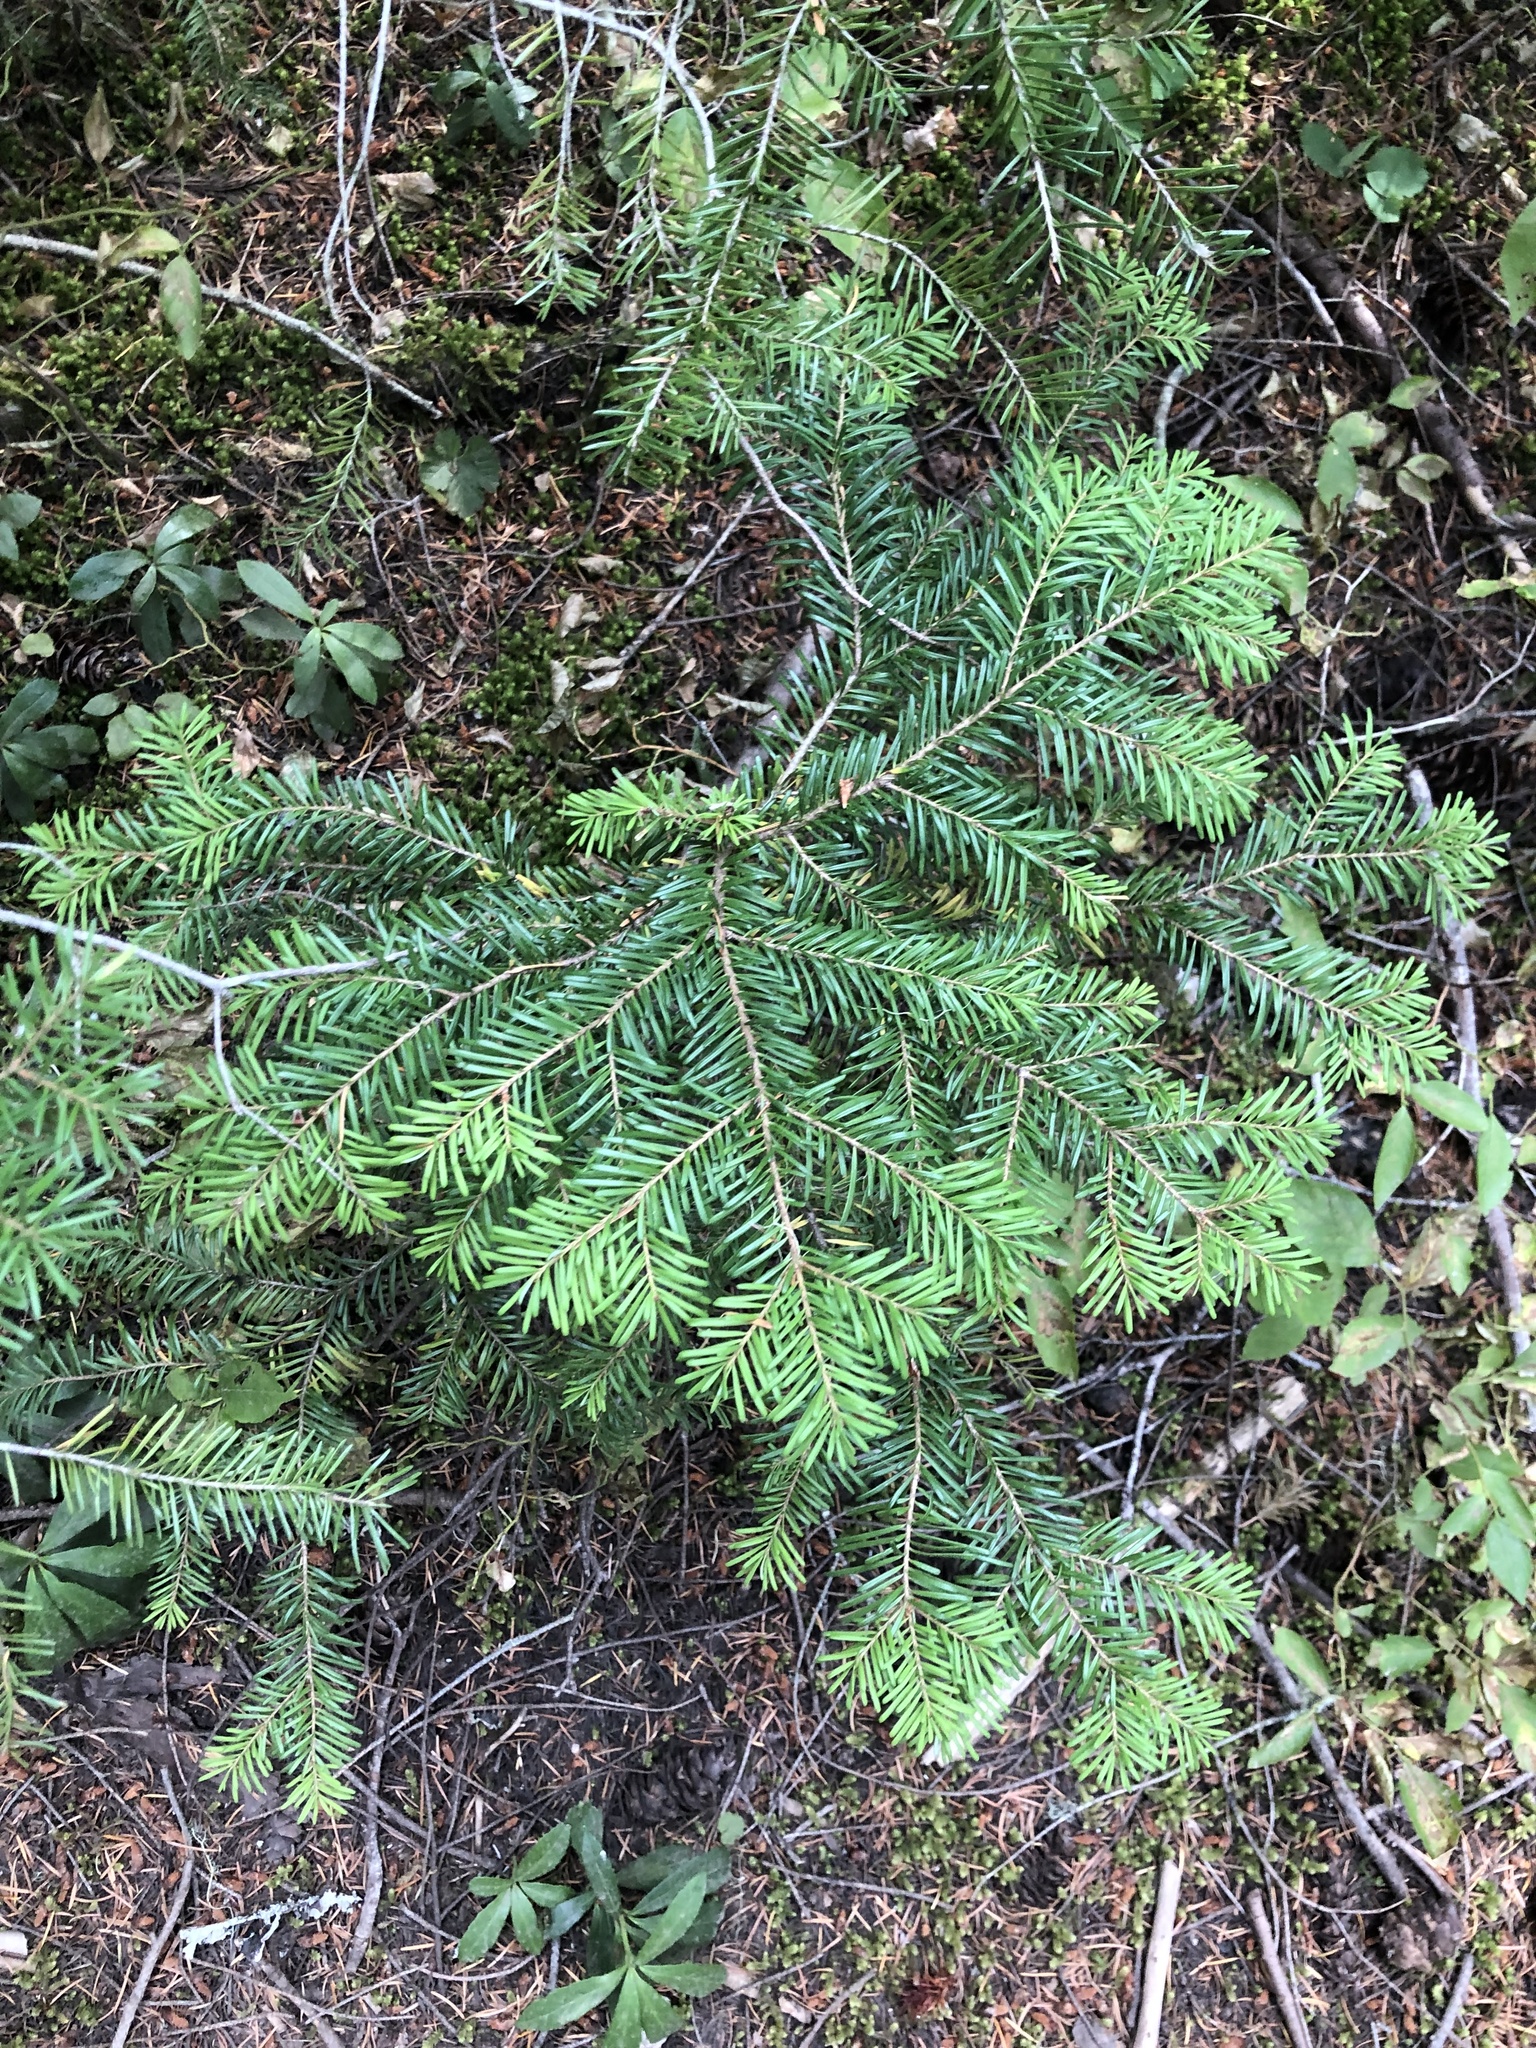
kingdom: Plantae
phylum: Tracheophyta
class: Pinopsida
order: Pinales
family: Pinaceae
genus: Abies
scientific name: Abies amabilis
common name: Pacific silver fir
